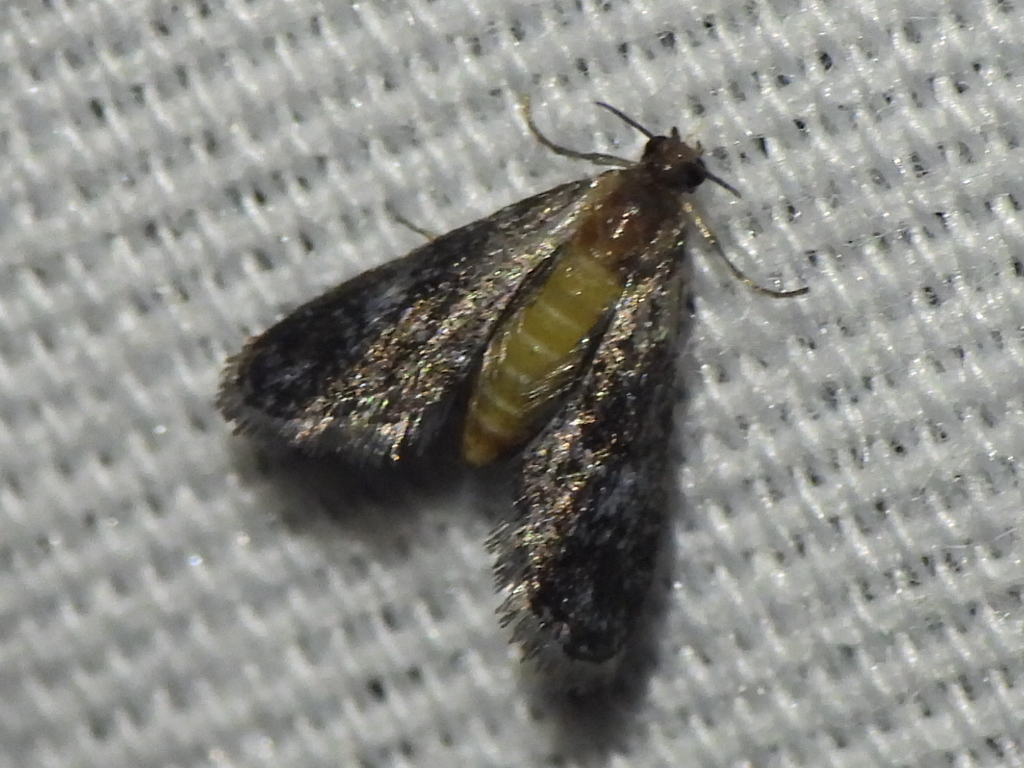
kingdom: Animalia
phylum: Arthropoda
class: Insecta
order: Lepidoptera
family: Crambidae
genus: Elophila
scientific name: Elophila tinealis
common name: Black duckweed moth
